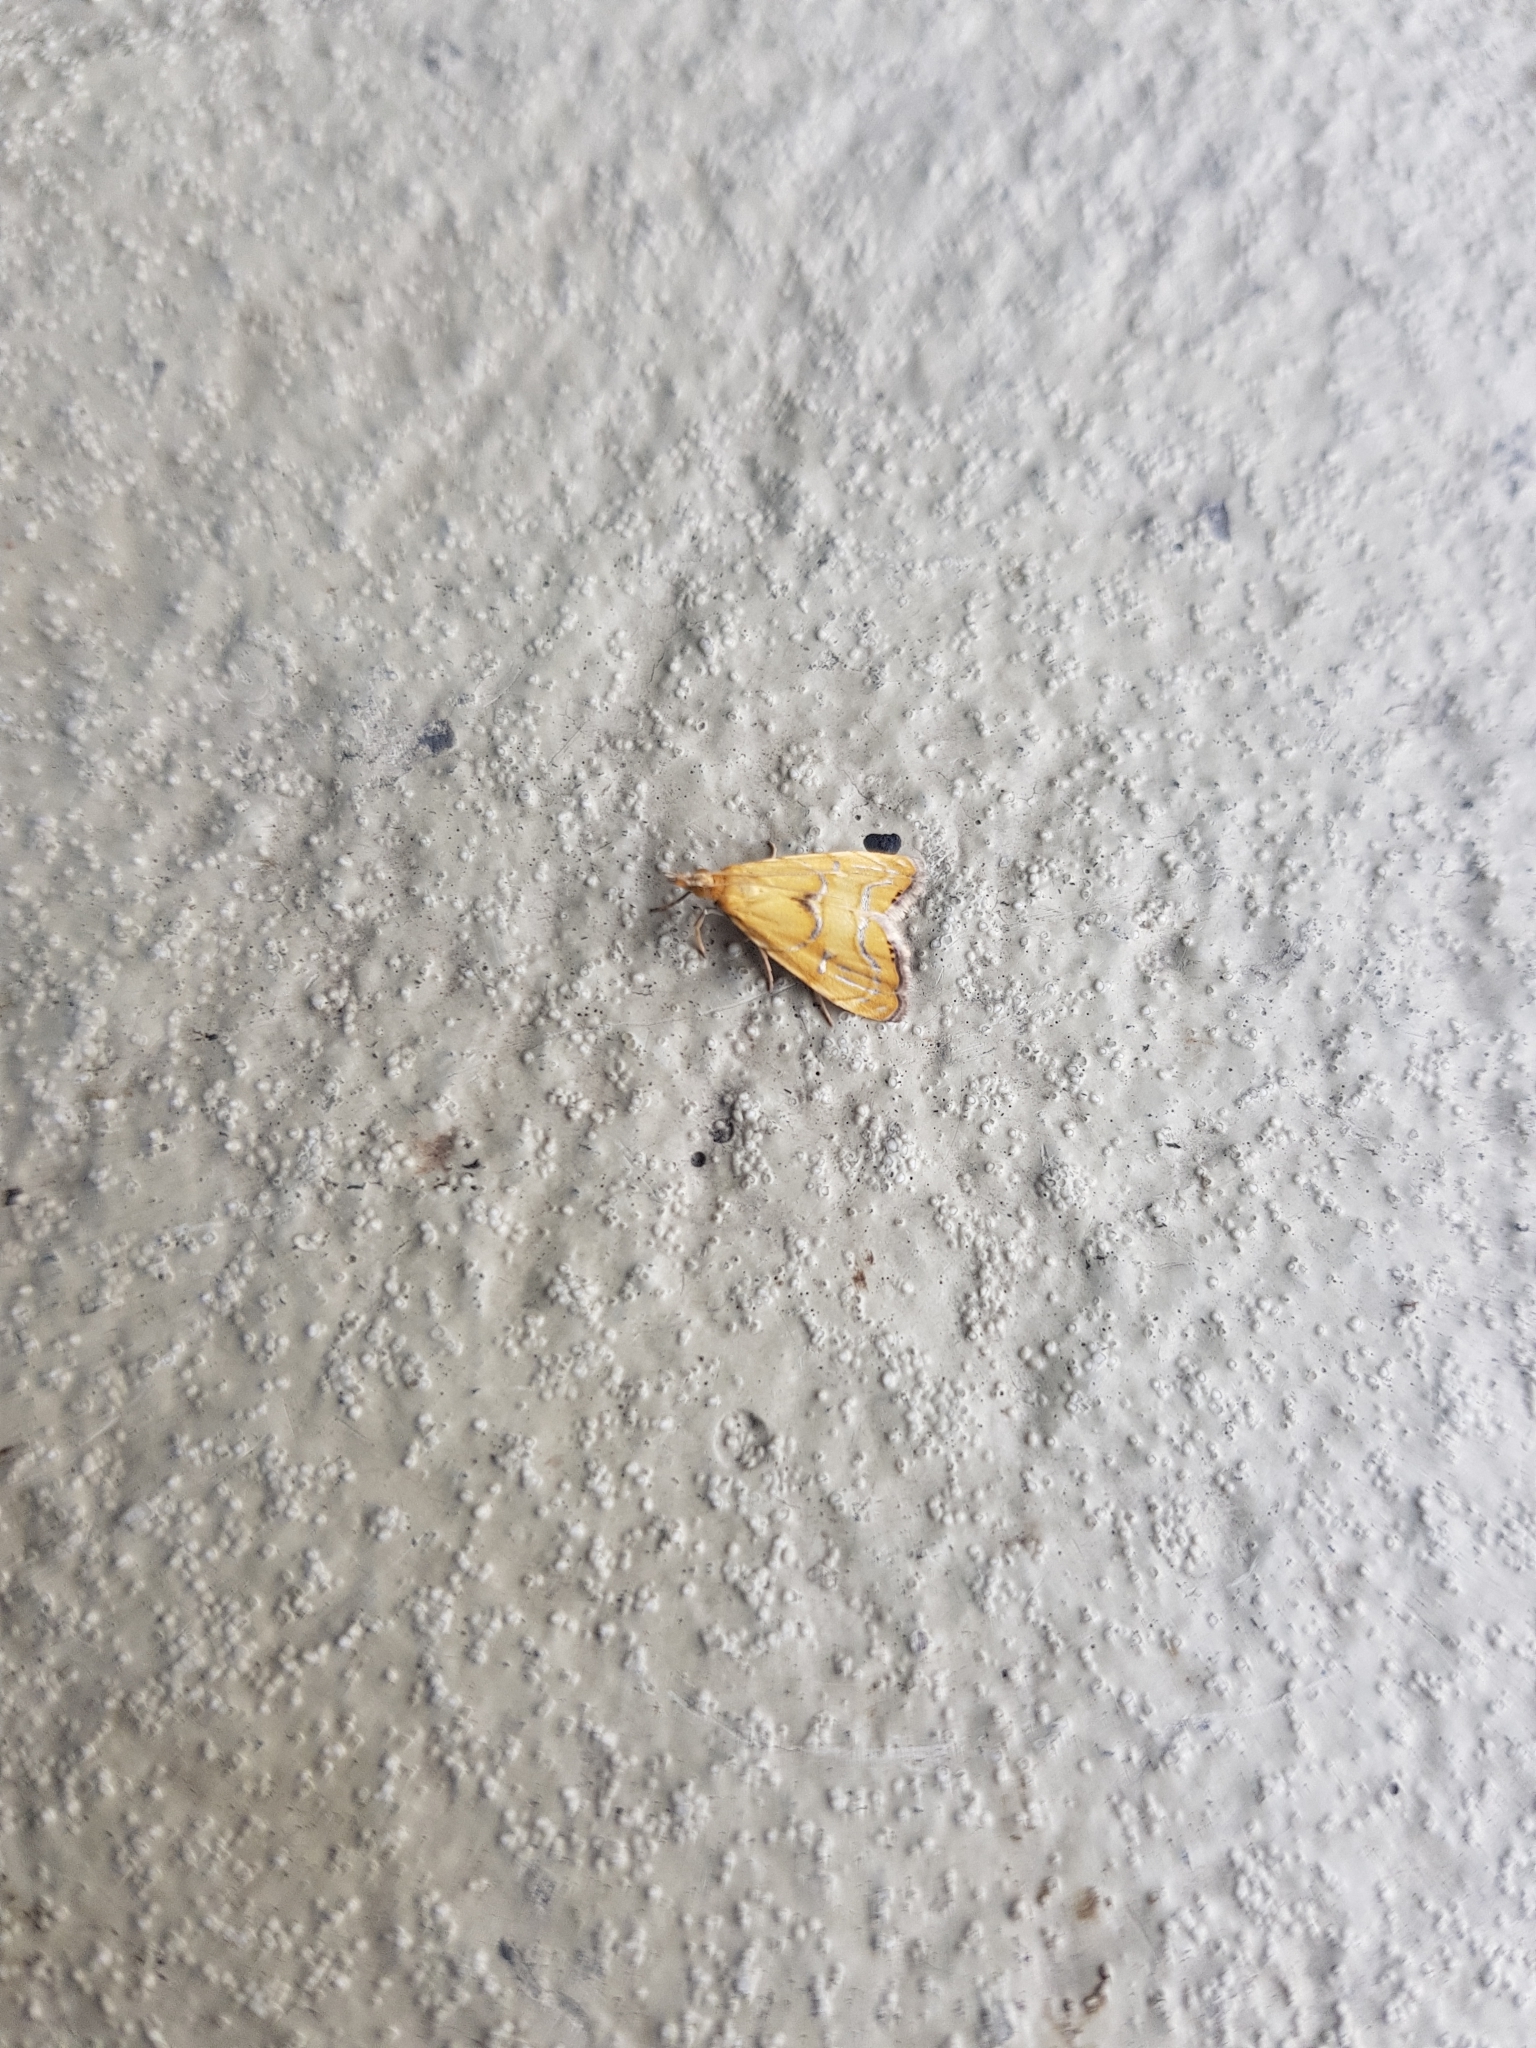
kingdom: Animalia
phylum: Arthropoda
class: Insecta
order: Lepidoptera
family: Crambidae
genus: Glaucocharis
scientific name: Glaucocharis auriscriptella
